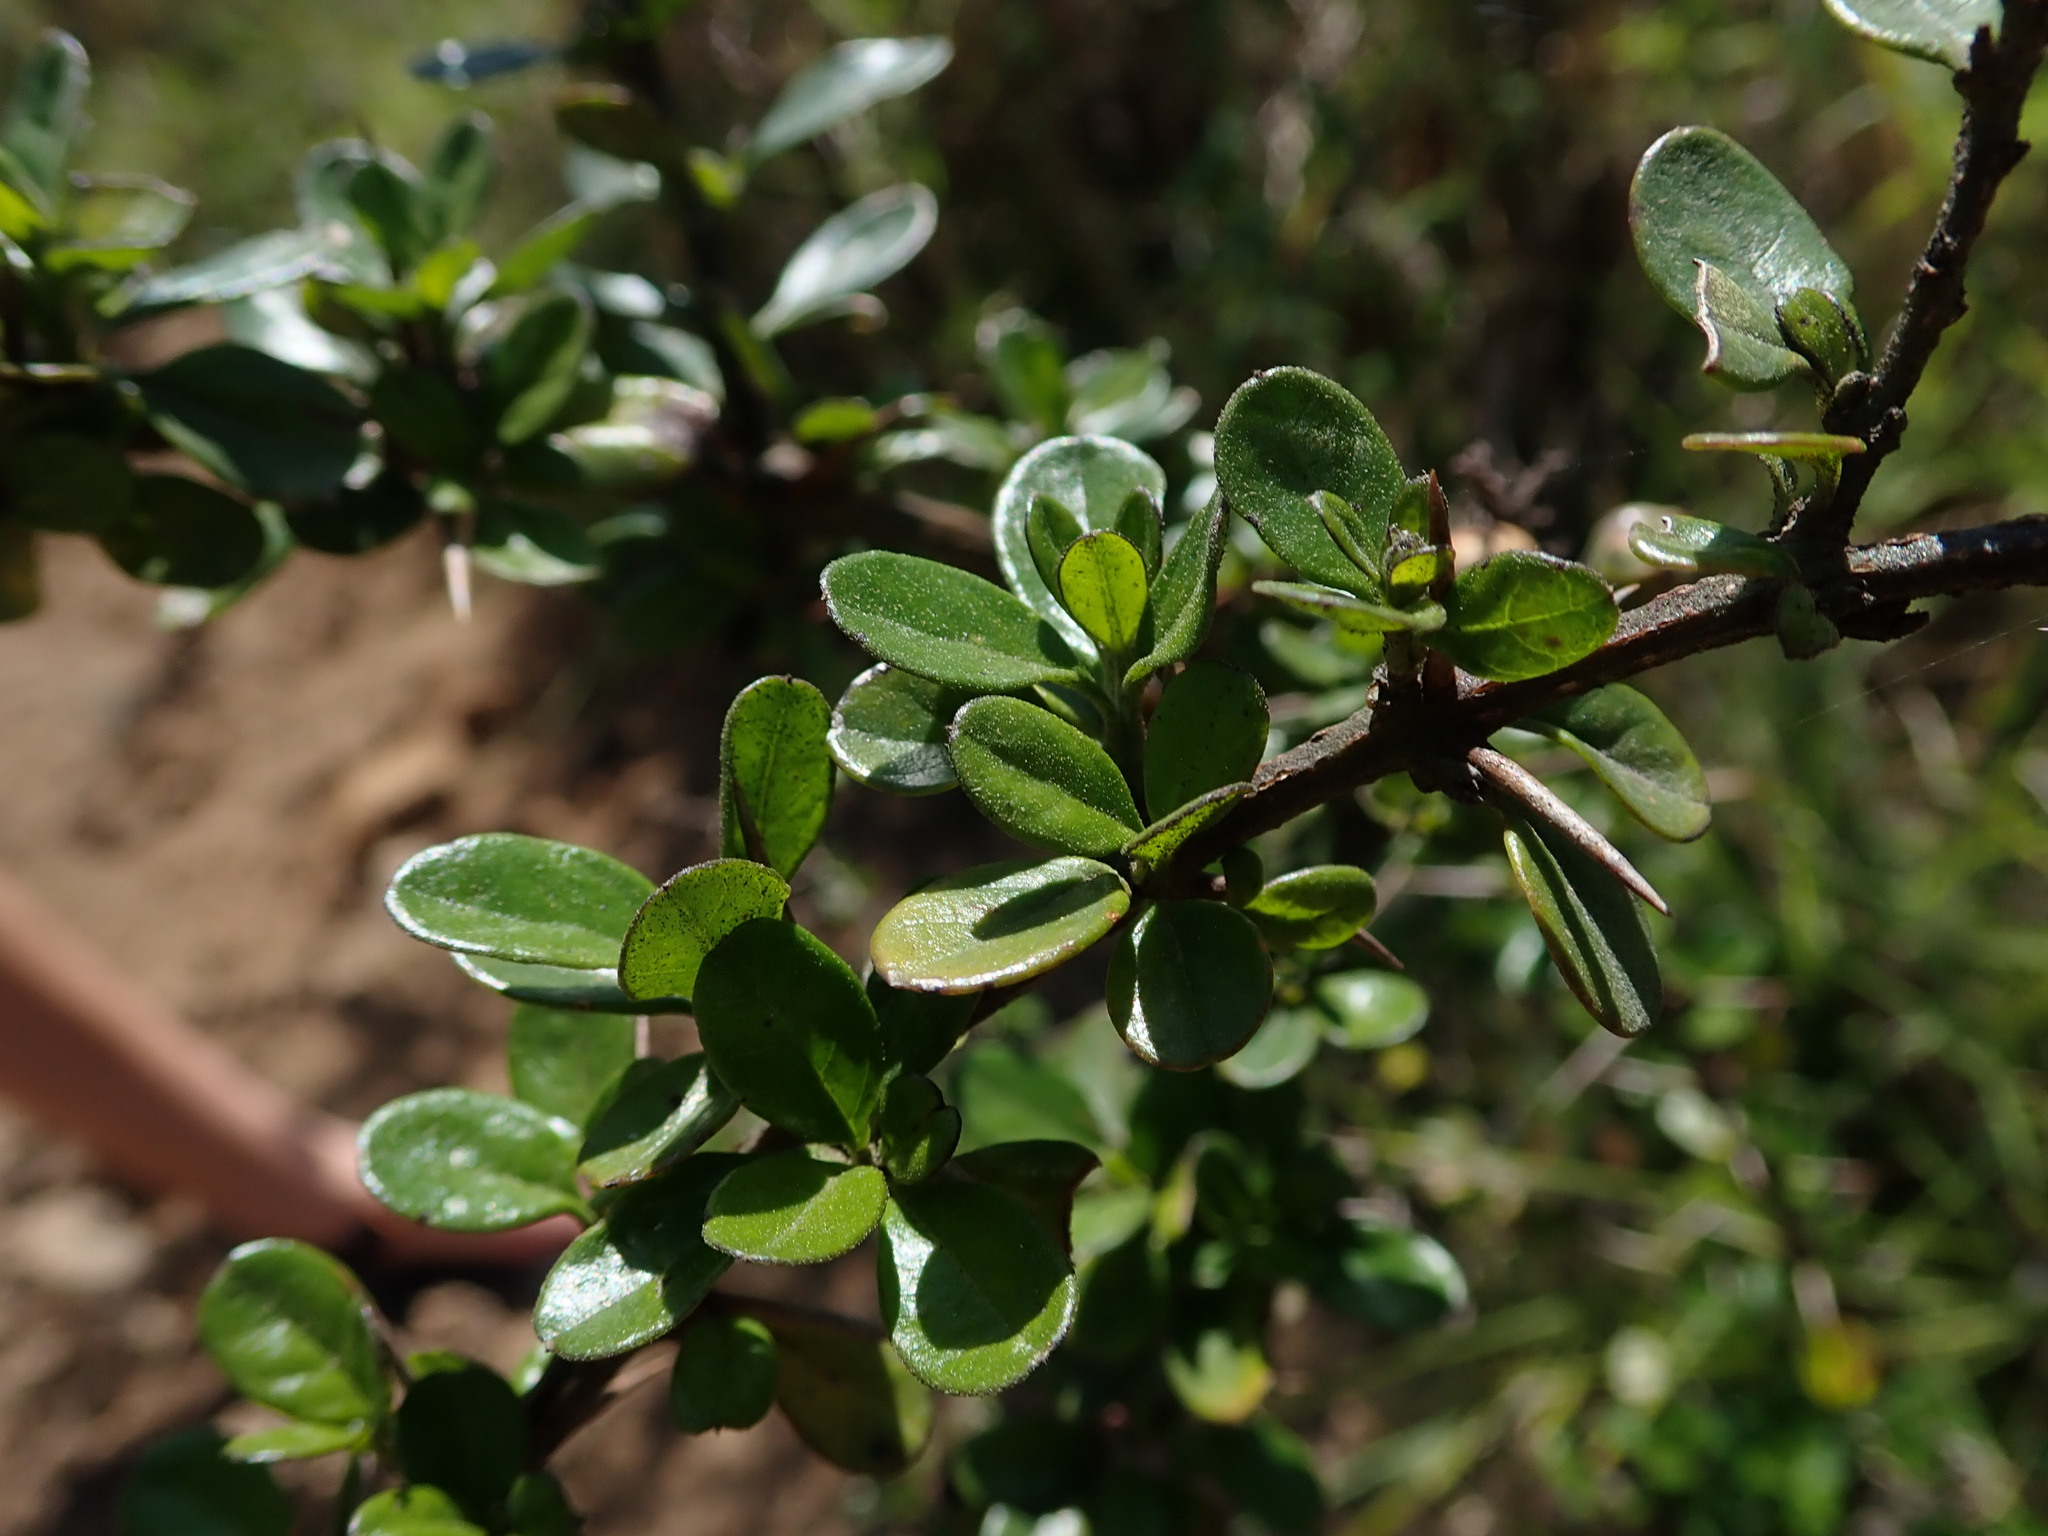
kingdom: Plantae
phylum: Tracheophyta
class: Magnoliopsida
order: Lamiales
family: Verbenaceae
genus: Duranta
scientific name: Duranta triacantha
